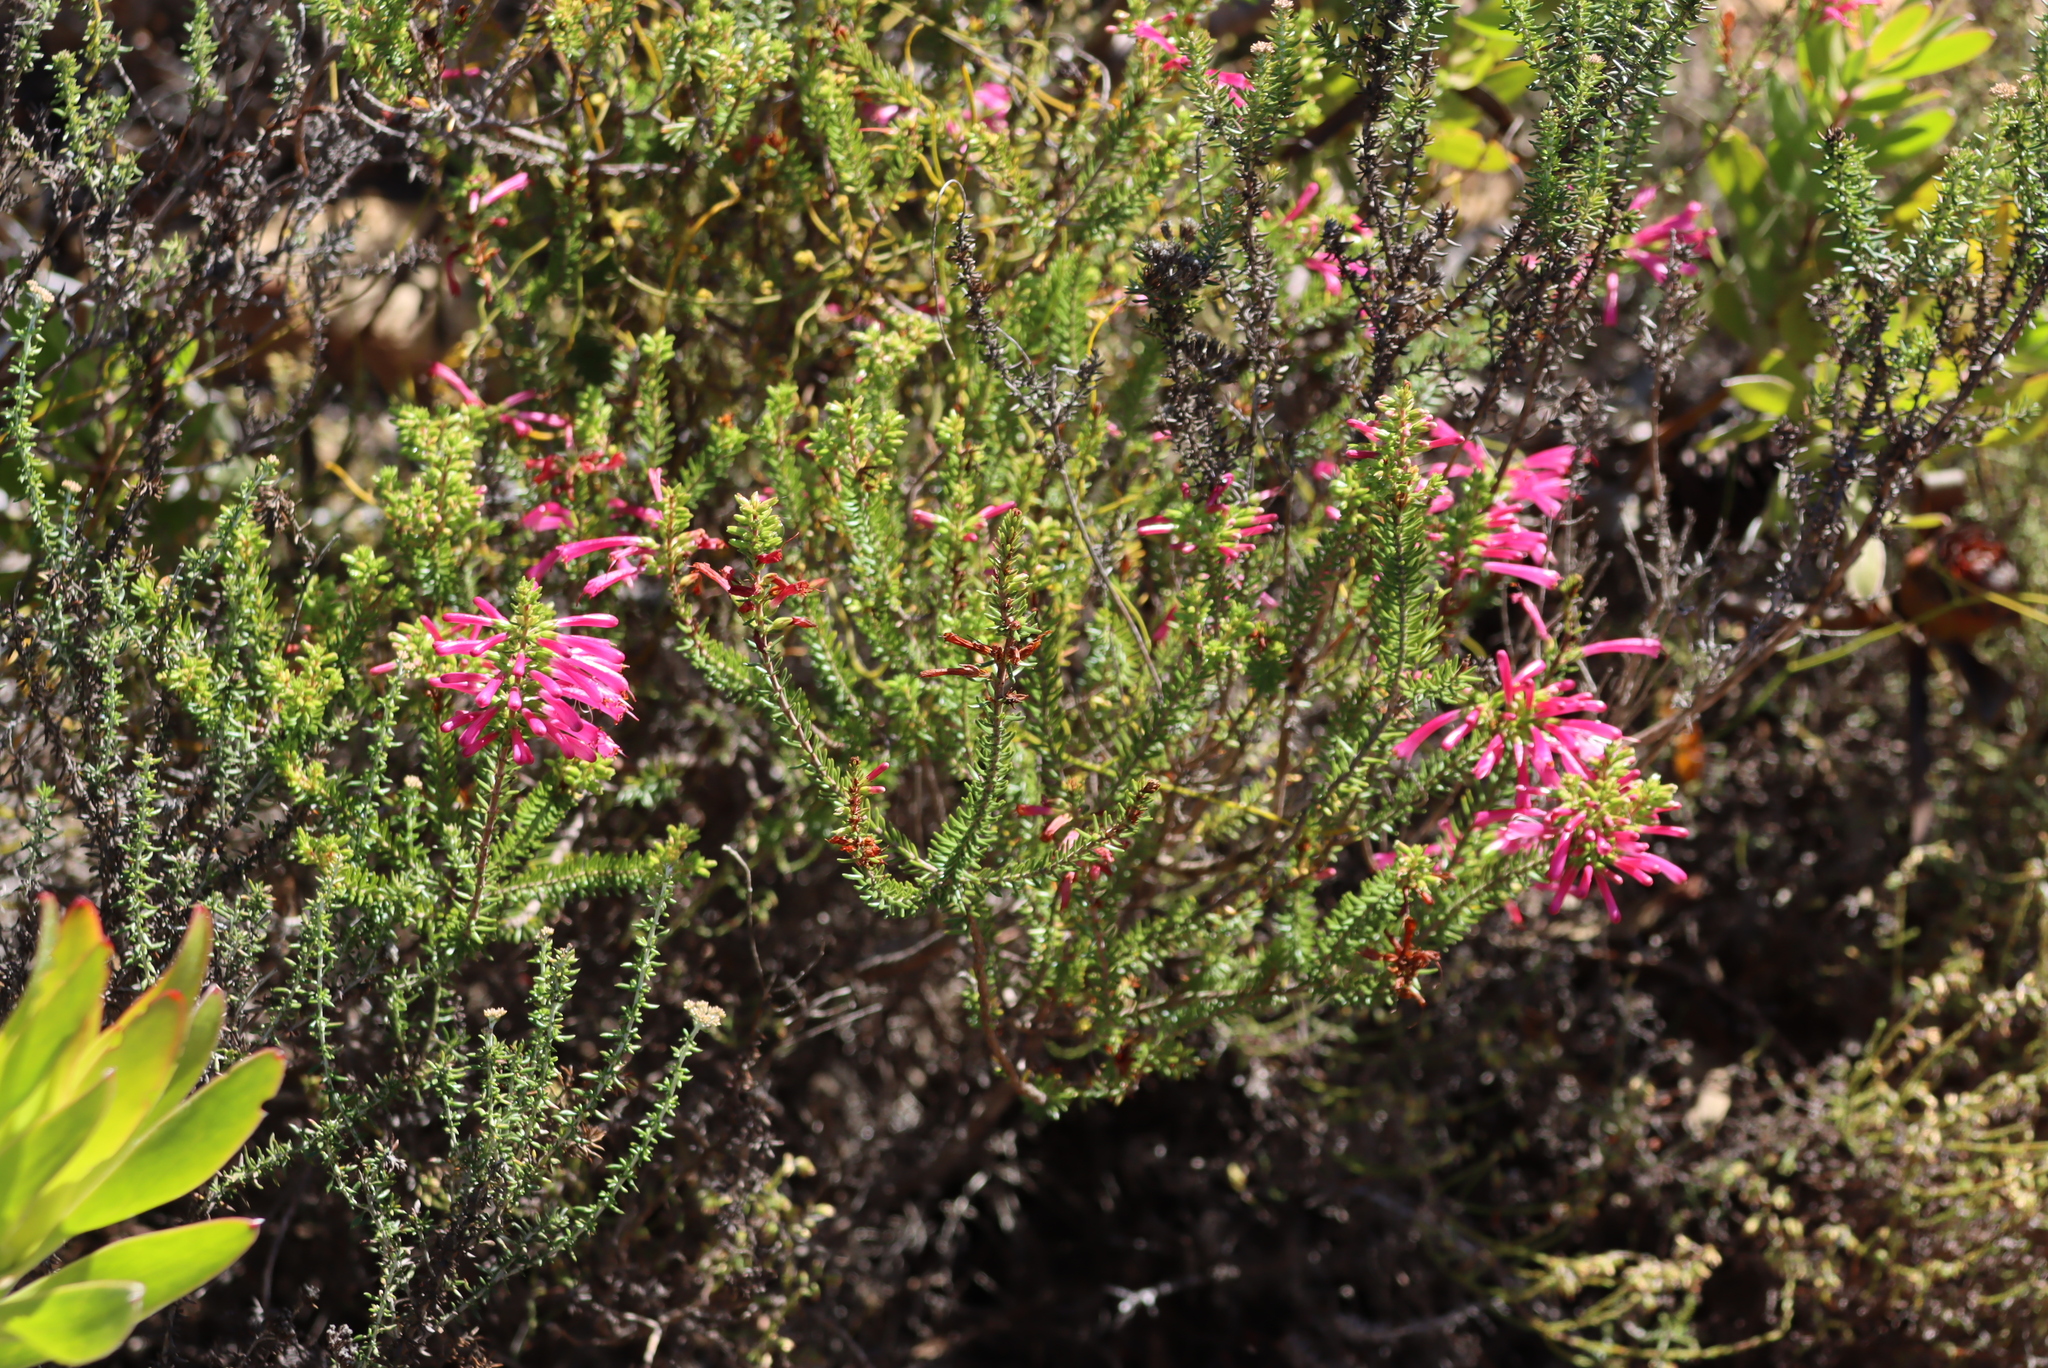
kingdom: Plantae
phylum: Tracheophyta
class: Magnoliopsida
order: Ericales
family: Ericaceae
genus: Erica
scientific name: Erica abietina
